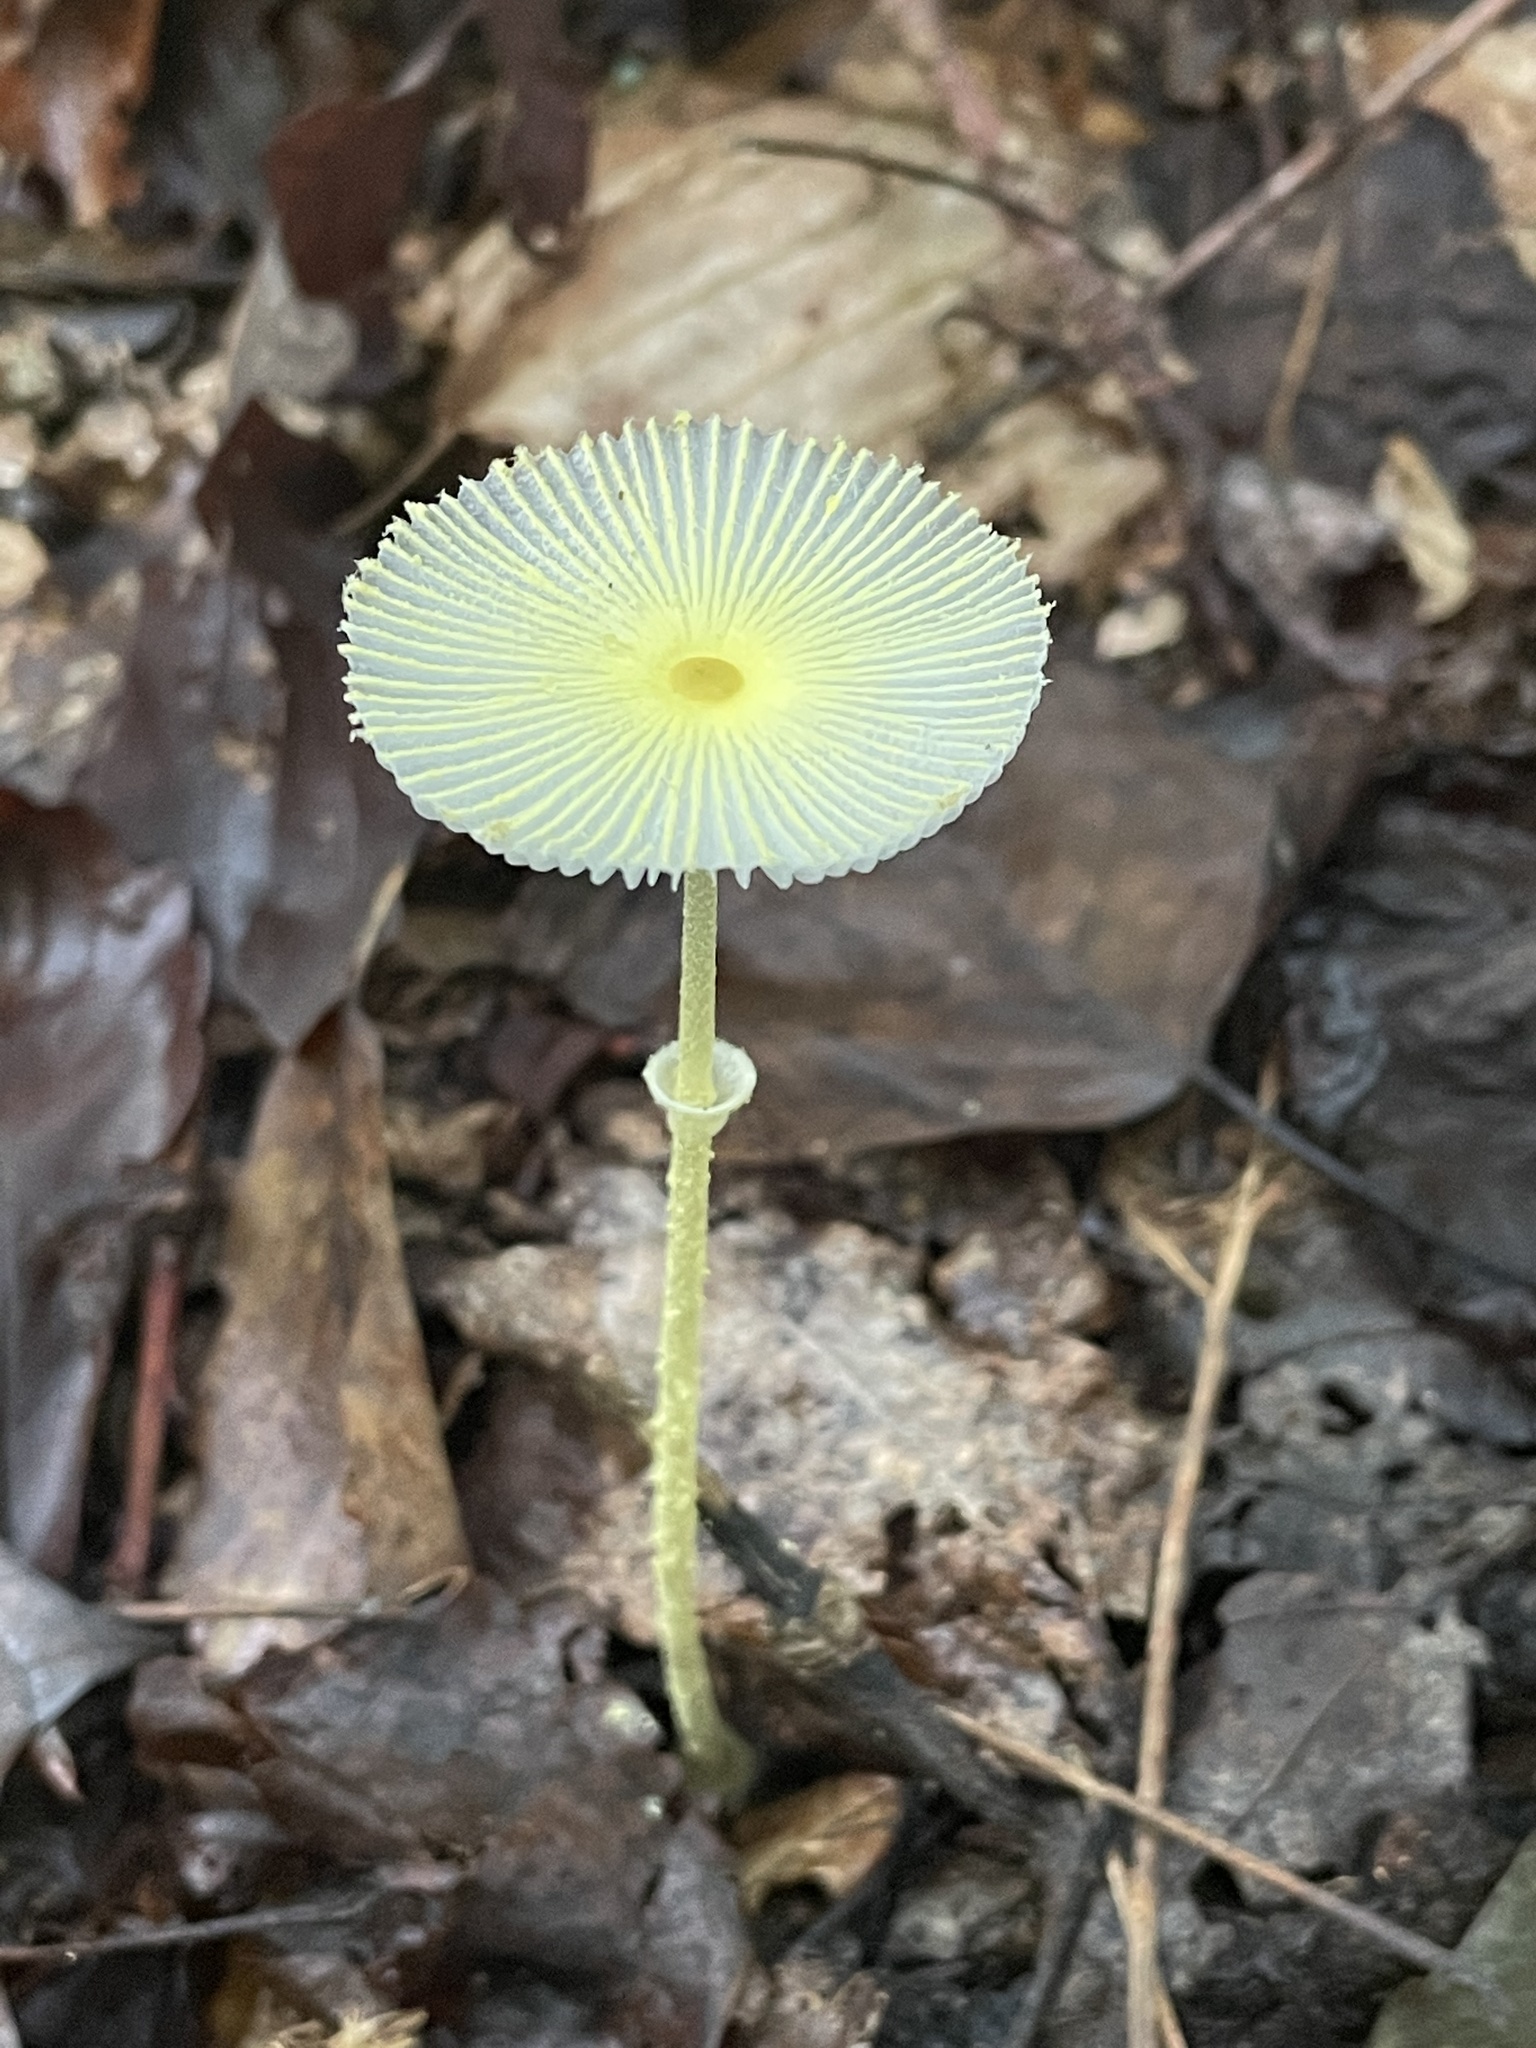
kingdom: Fungi
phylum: Basidiomycota
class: Agaricomycetes
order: Agaricales
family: Agaricaceae
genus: Leucocoprinus
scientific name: Leucocoprinus fragilissimus
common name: Fragile dapperling
